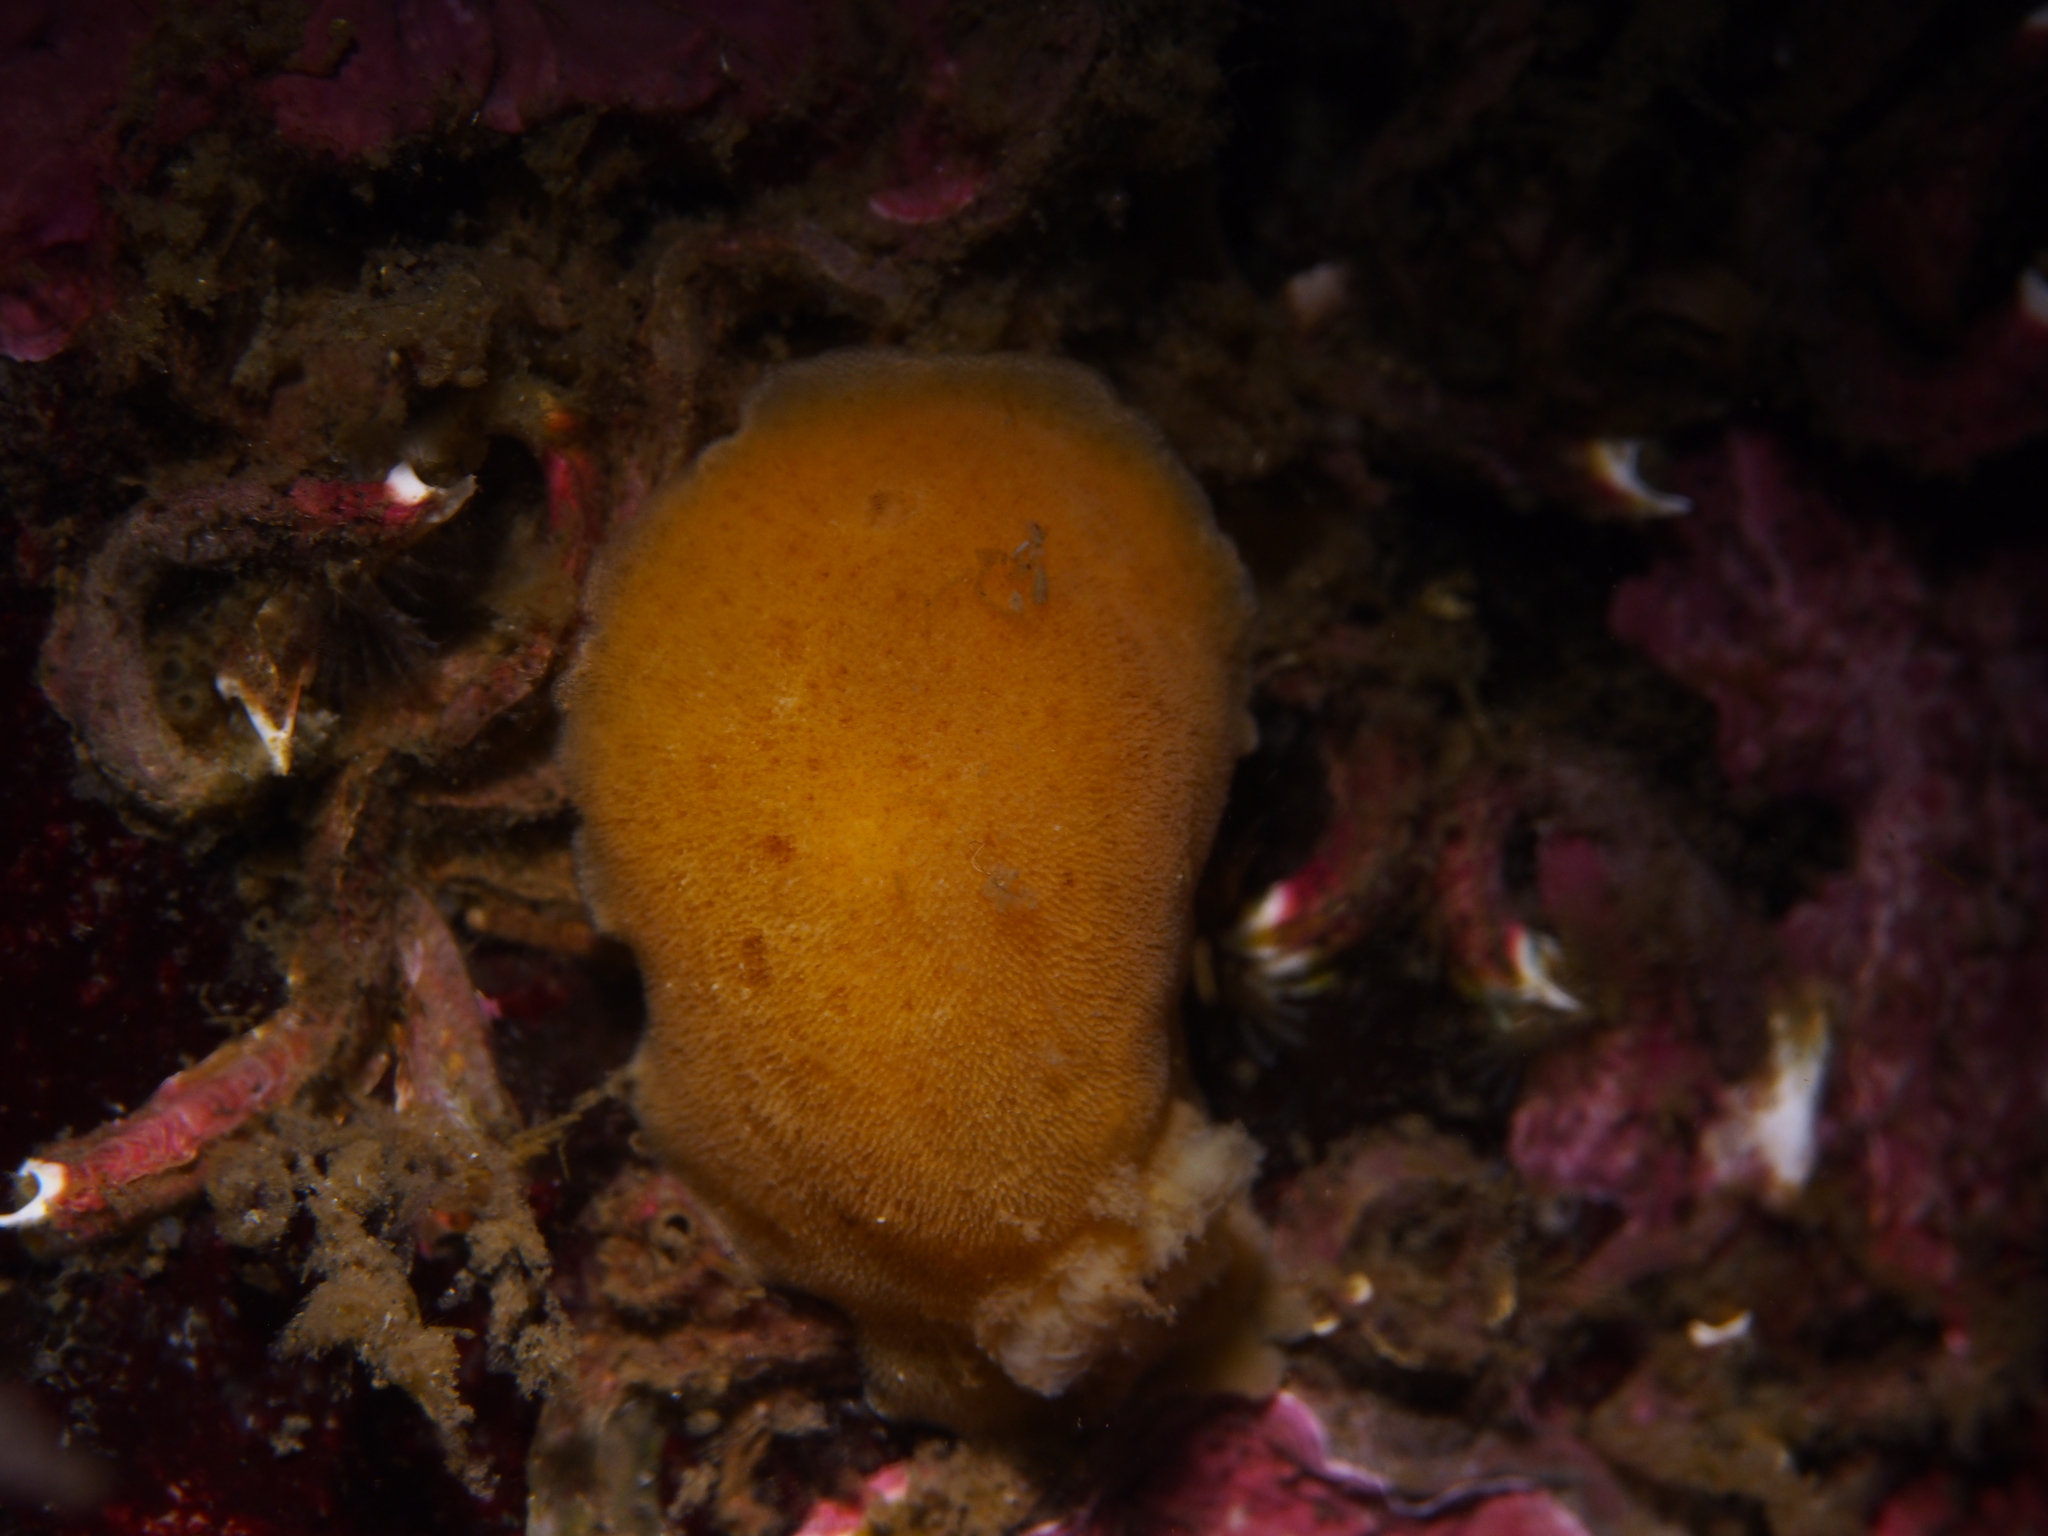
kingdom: Animalia
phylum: Mollusca
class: Gastropoda
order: Nudibranchia
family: Discodorididae
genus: Jorunna
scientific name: Jorunna tomentosa
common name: Grey sea slug
